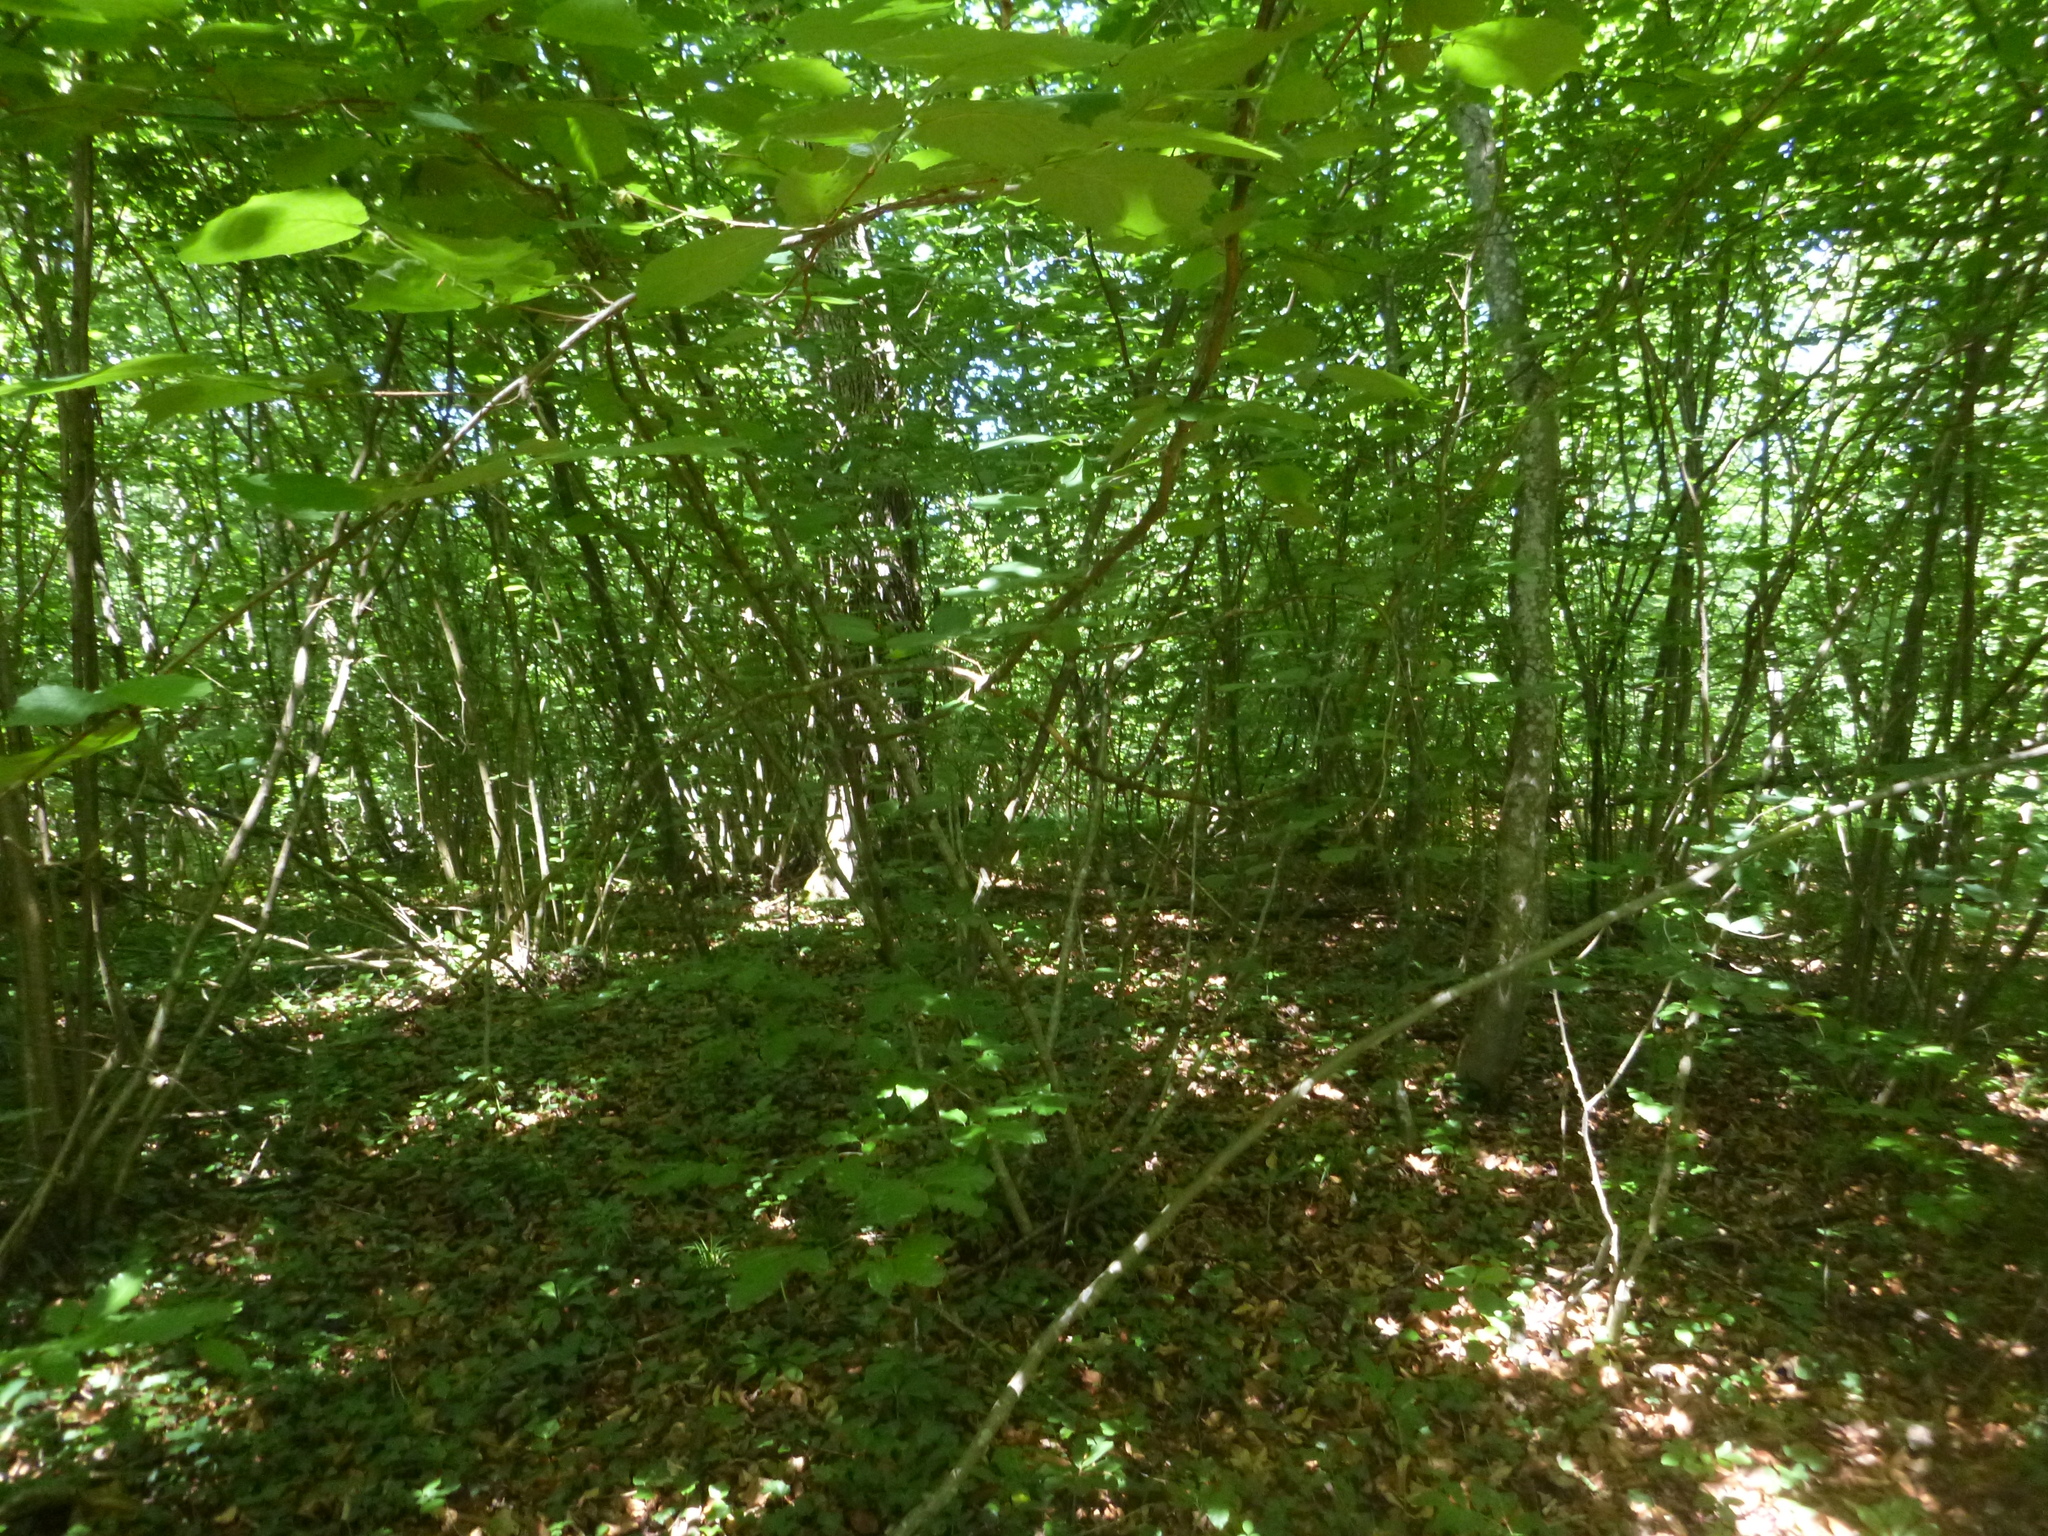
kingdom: Plantae
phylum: Tracheophyta
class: Magnoliopsida
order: Fagales
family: Betulaceae
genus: Corylus
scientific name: Corylus avellana
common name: European hazel
